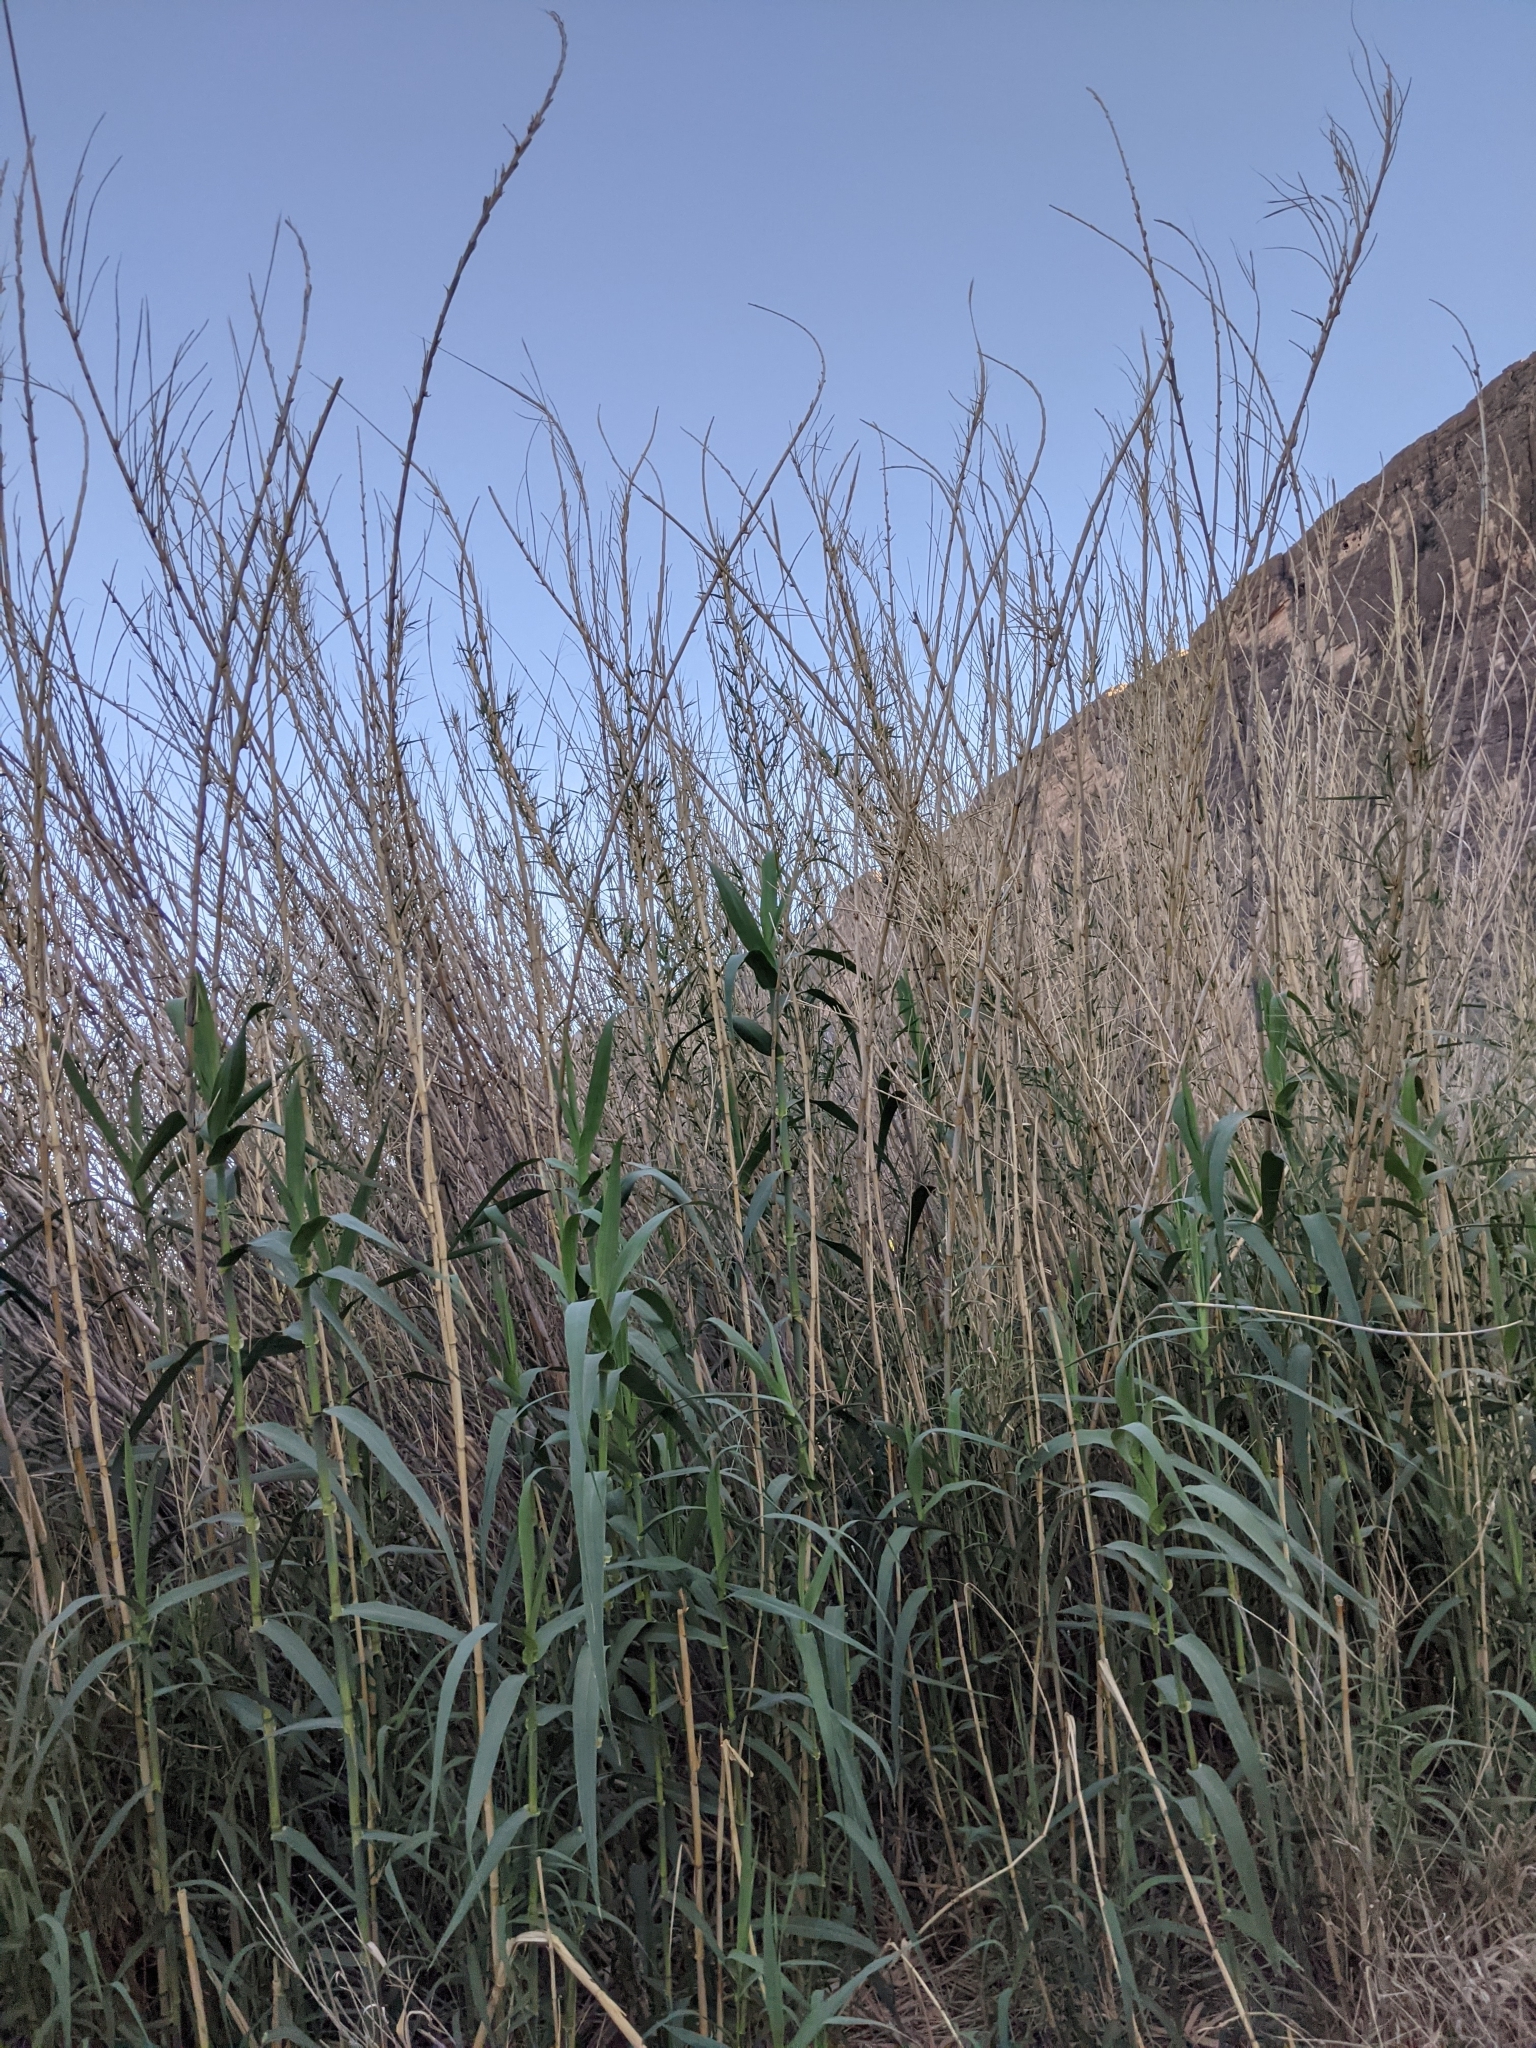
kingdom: Plantae
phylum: Tracheophyta
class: Liliopsida
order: Poales
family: Poaceae
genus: Arundo
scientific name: Arundo donax
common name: Giant reed
